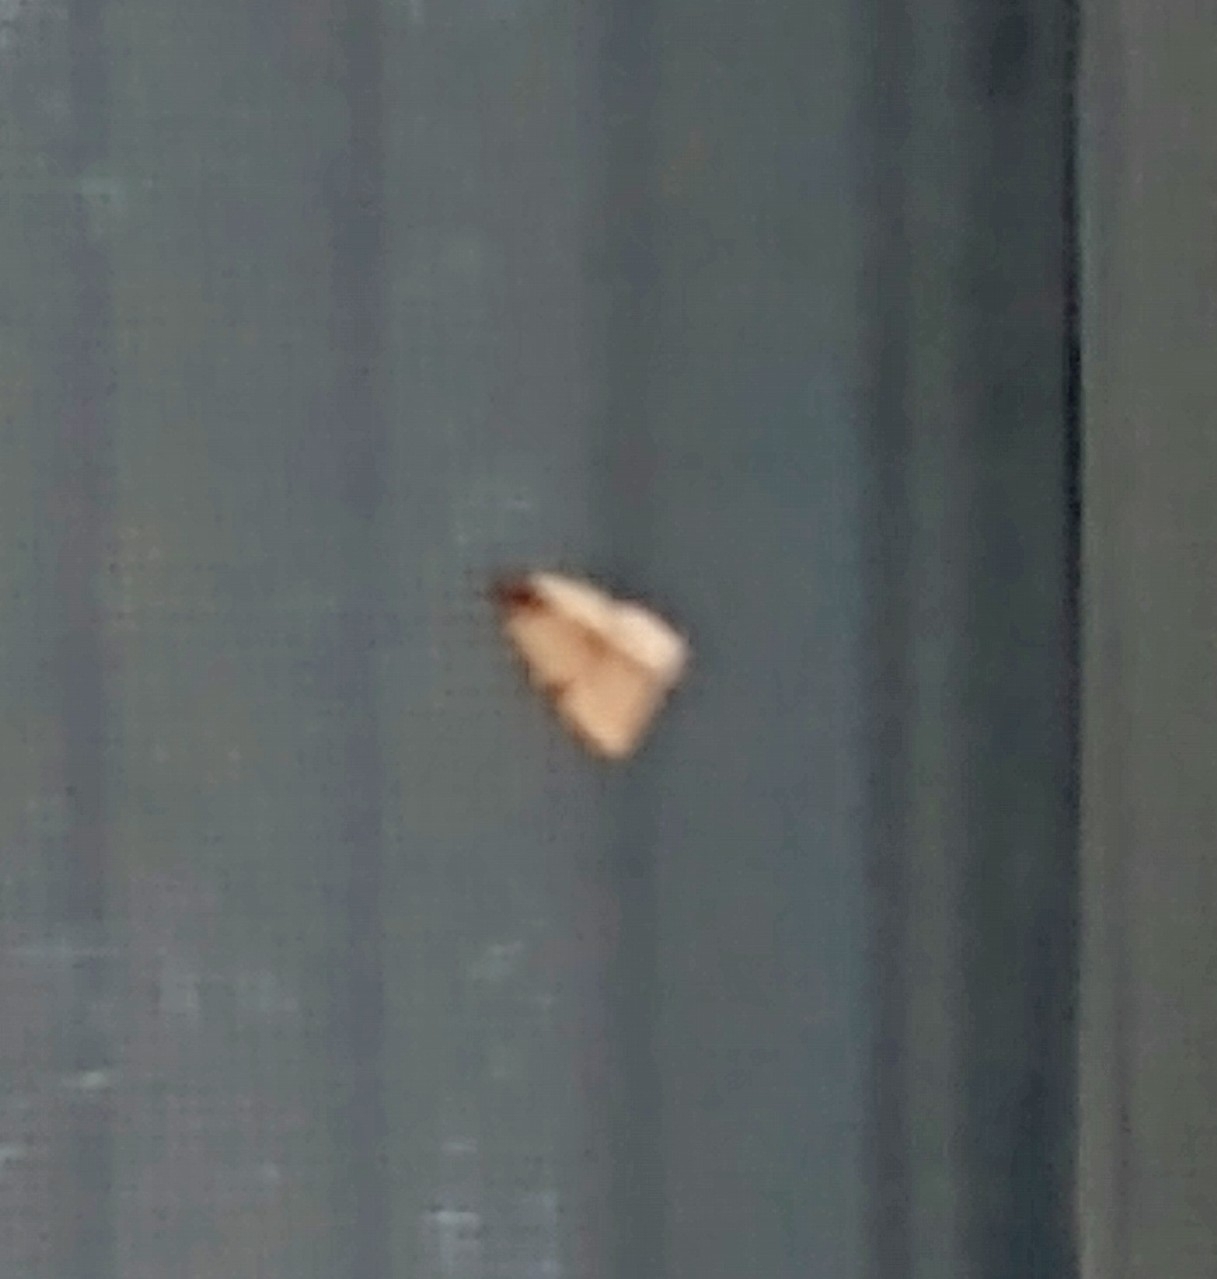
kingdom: Animalia
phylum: Arthropoda
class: Insecta
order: Lepidoptera
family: Noctuidae
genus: Galgula
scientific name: Galgula partita
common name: Wedgeling
